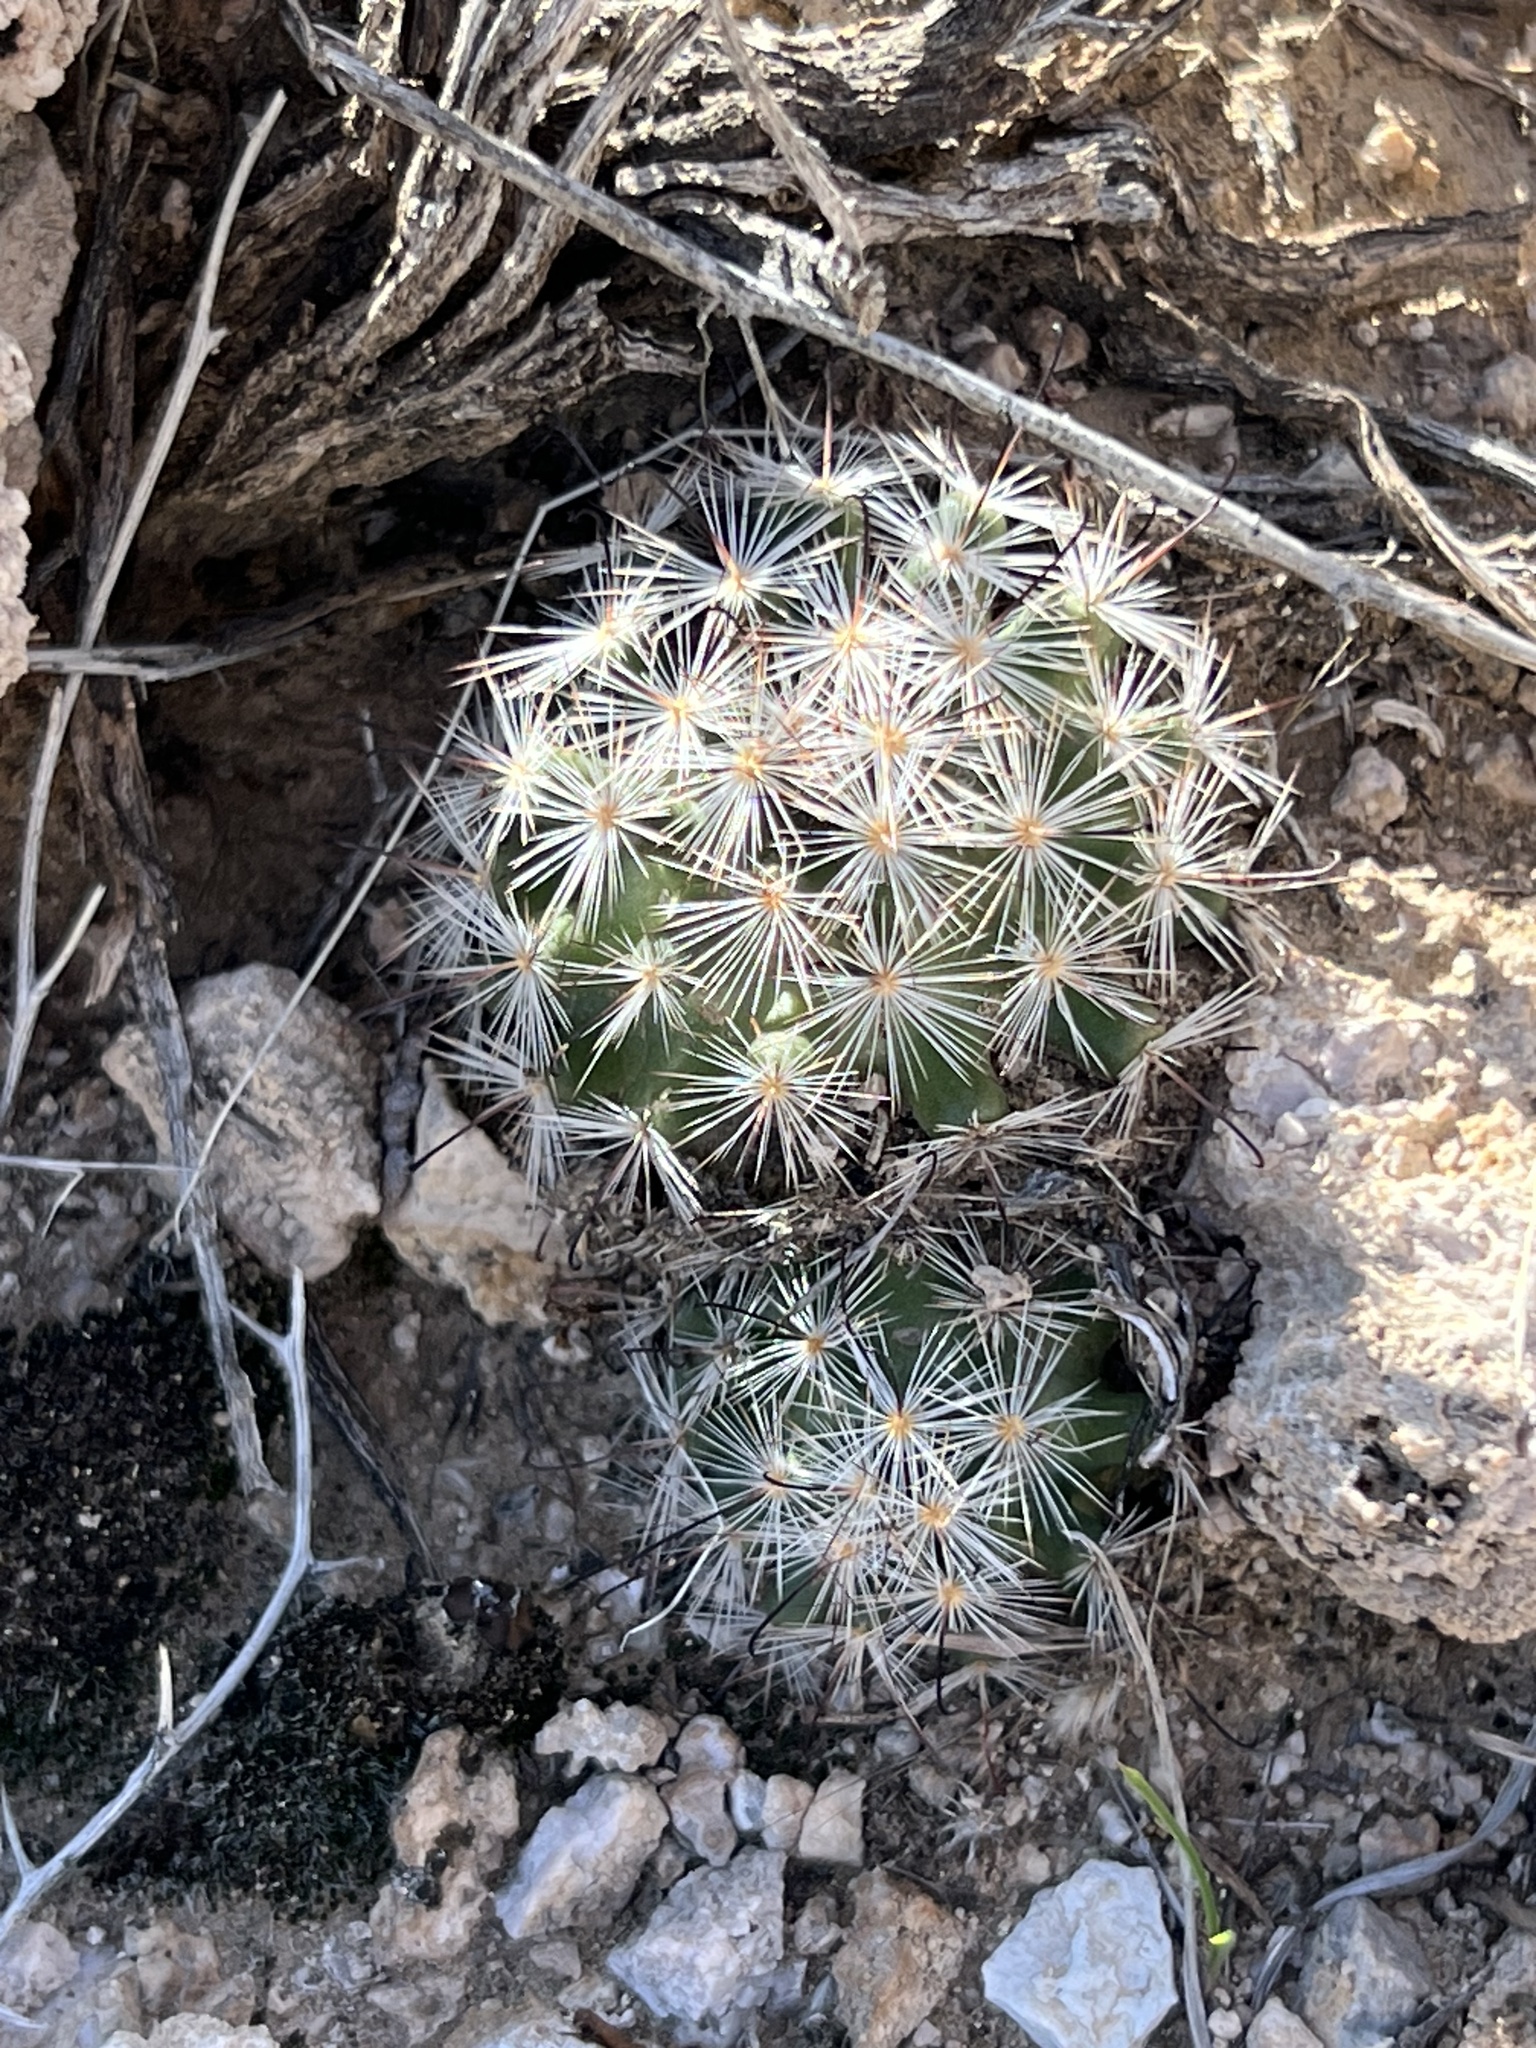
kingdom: Plantae
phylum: Tracheophyta
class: Magnoliopsida
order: Caryophyllales
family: Cactaceae
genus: Cochemiea
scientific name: Cochemiea tetrancistra
